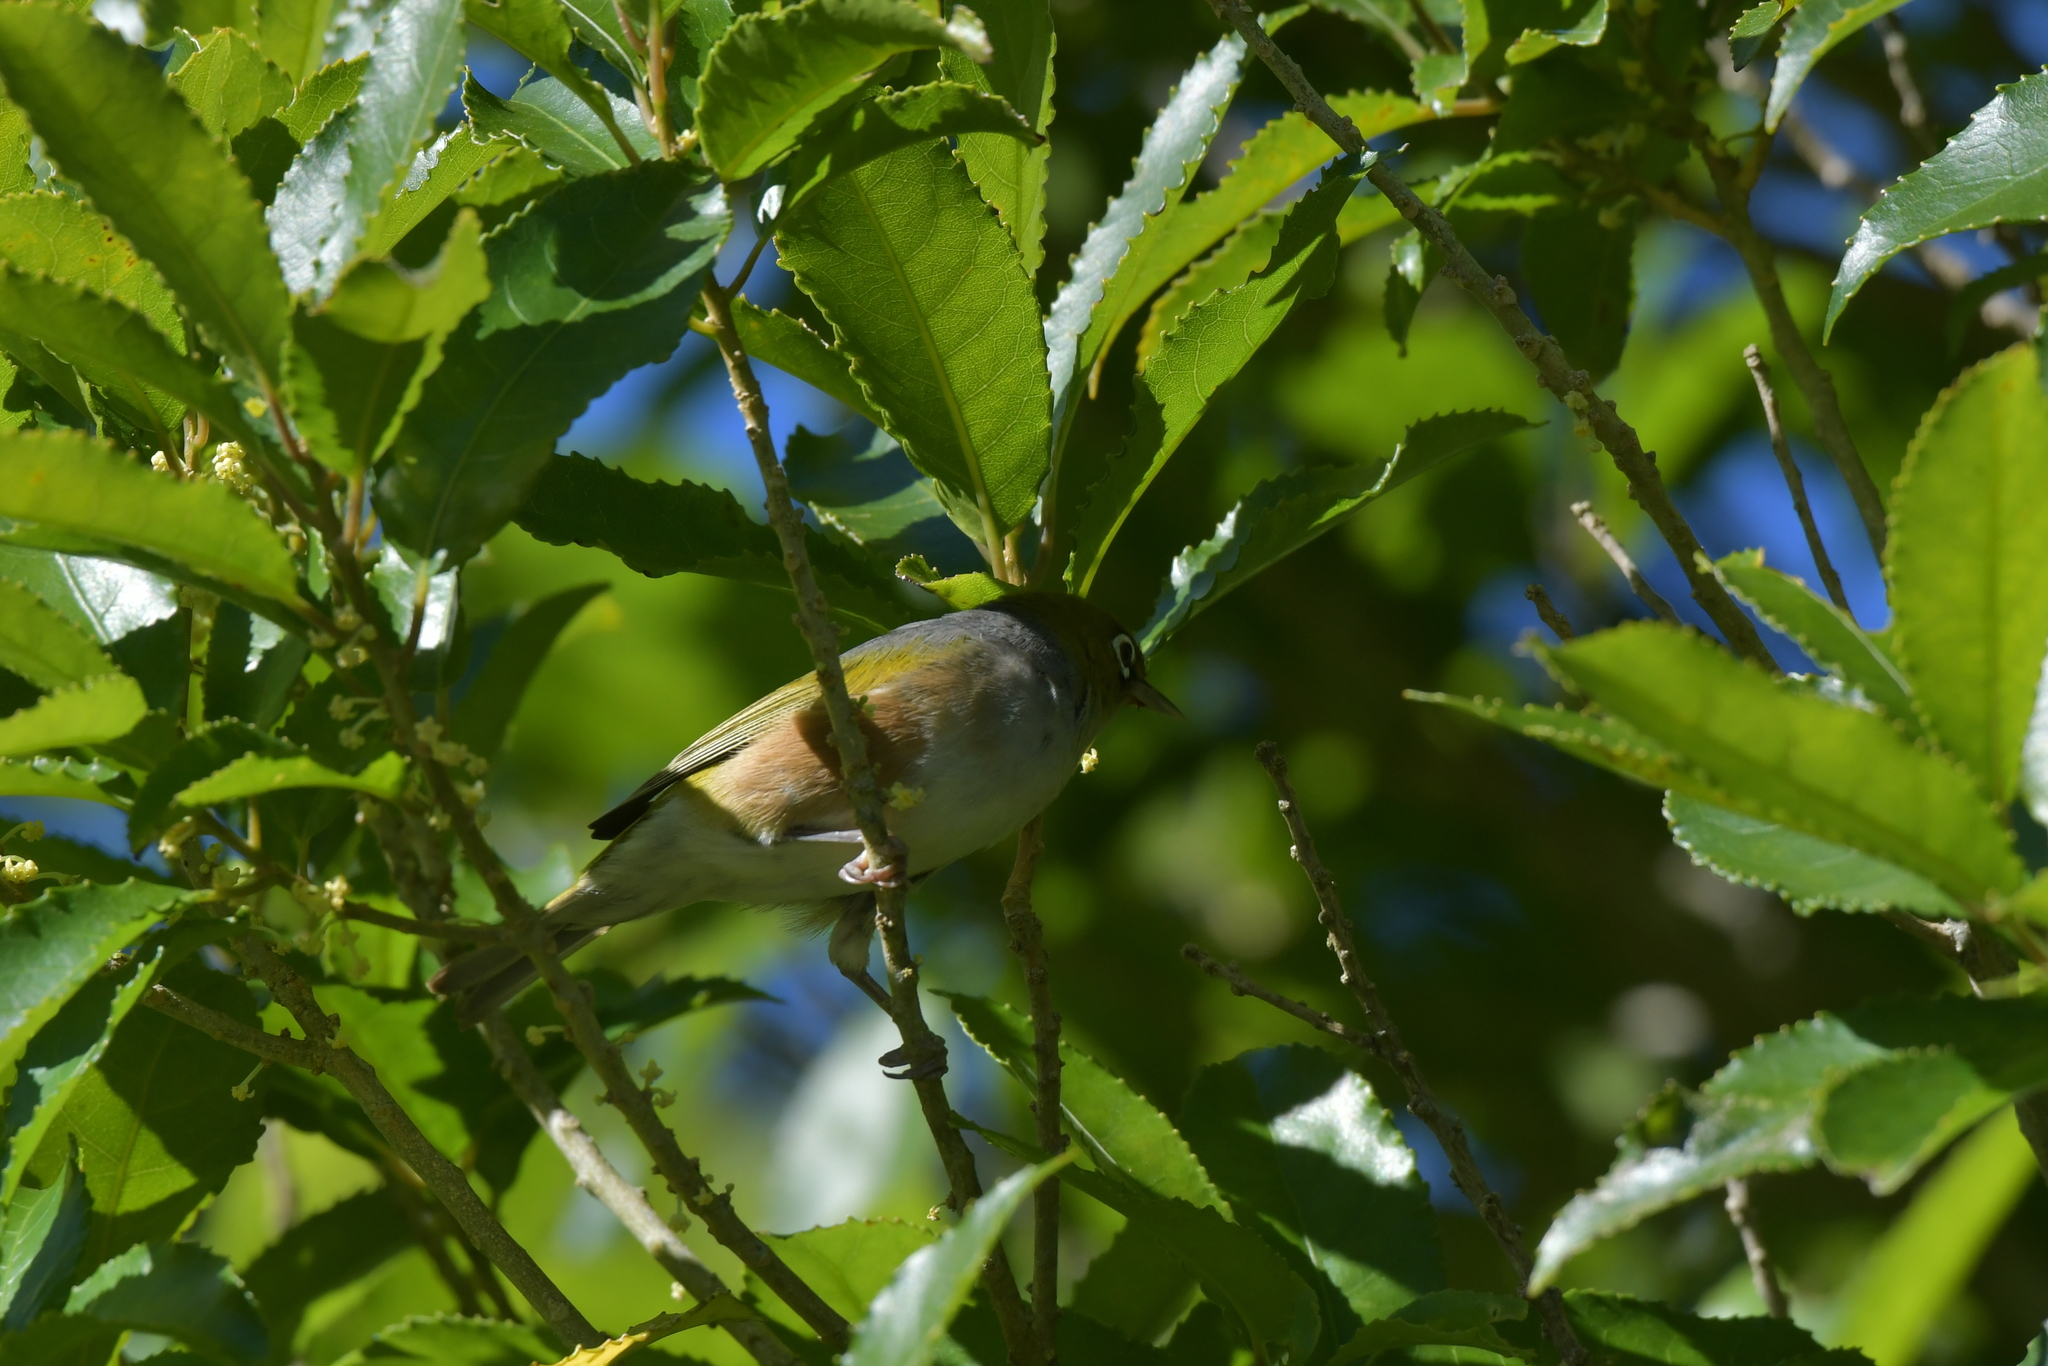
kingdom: Animalia
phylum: Chordata
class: Aves
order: Passeriformes
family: Zosteropidae
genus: Zosterops
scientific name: Zosterops lateralis
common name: Silvereye
